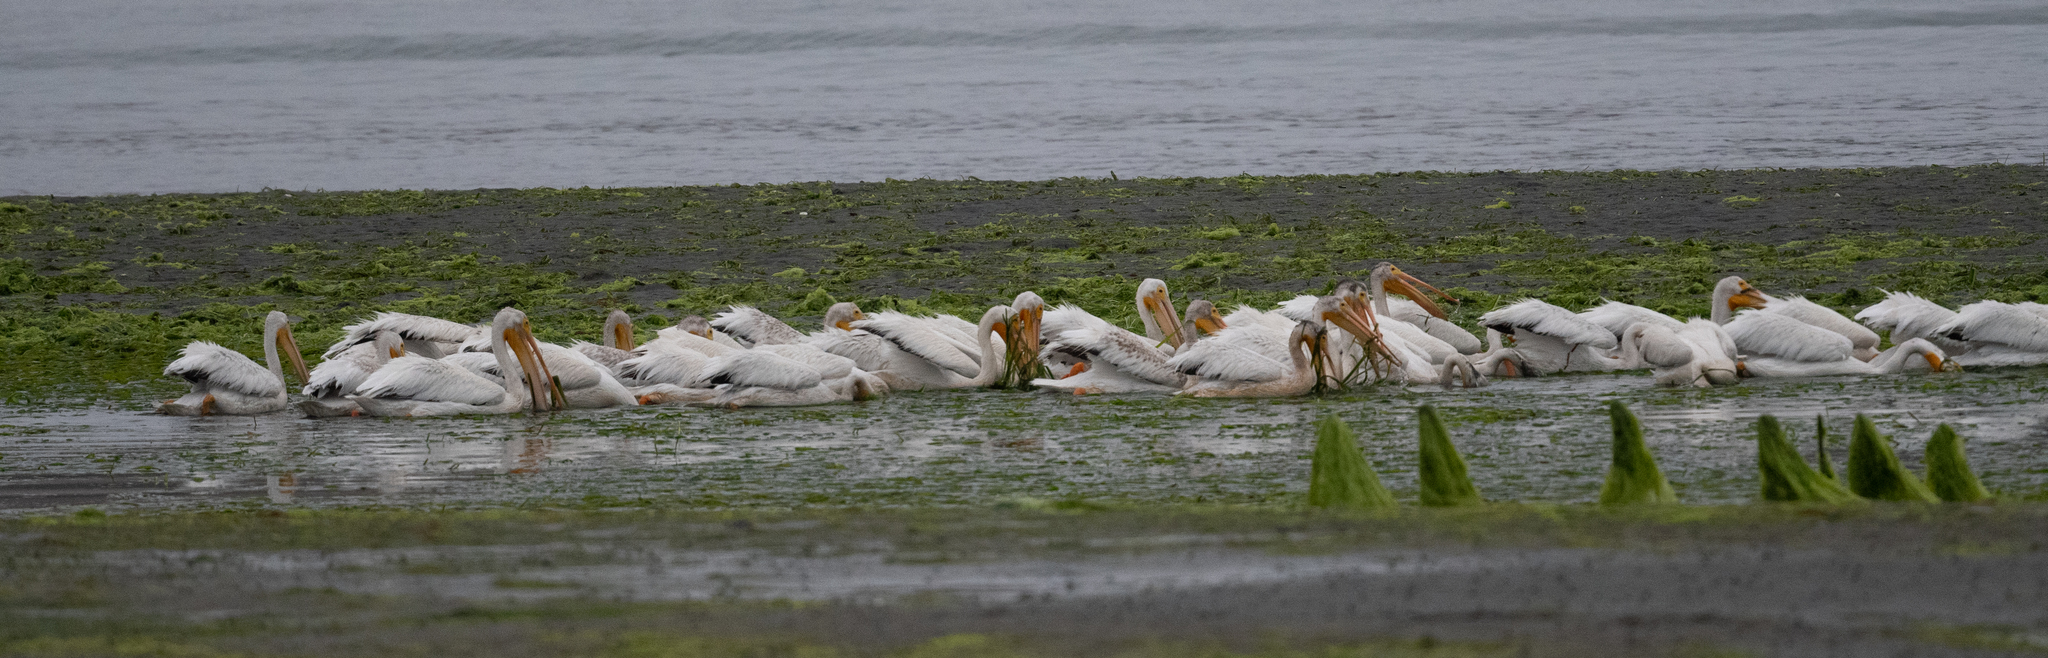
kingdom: Animalia
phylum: Chordata
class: Aves
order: Pelecaniformes
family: Pelecanidae
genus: Pelecanus
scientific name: Pelecanus erythrorhynchos
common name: American white pelican
